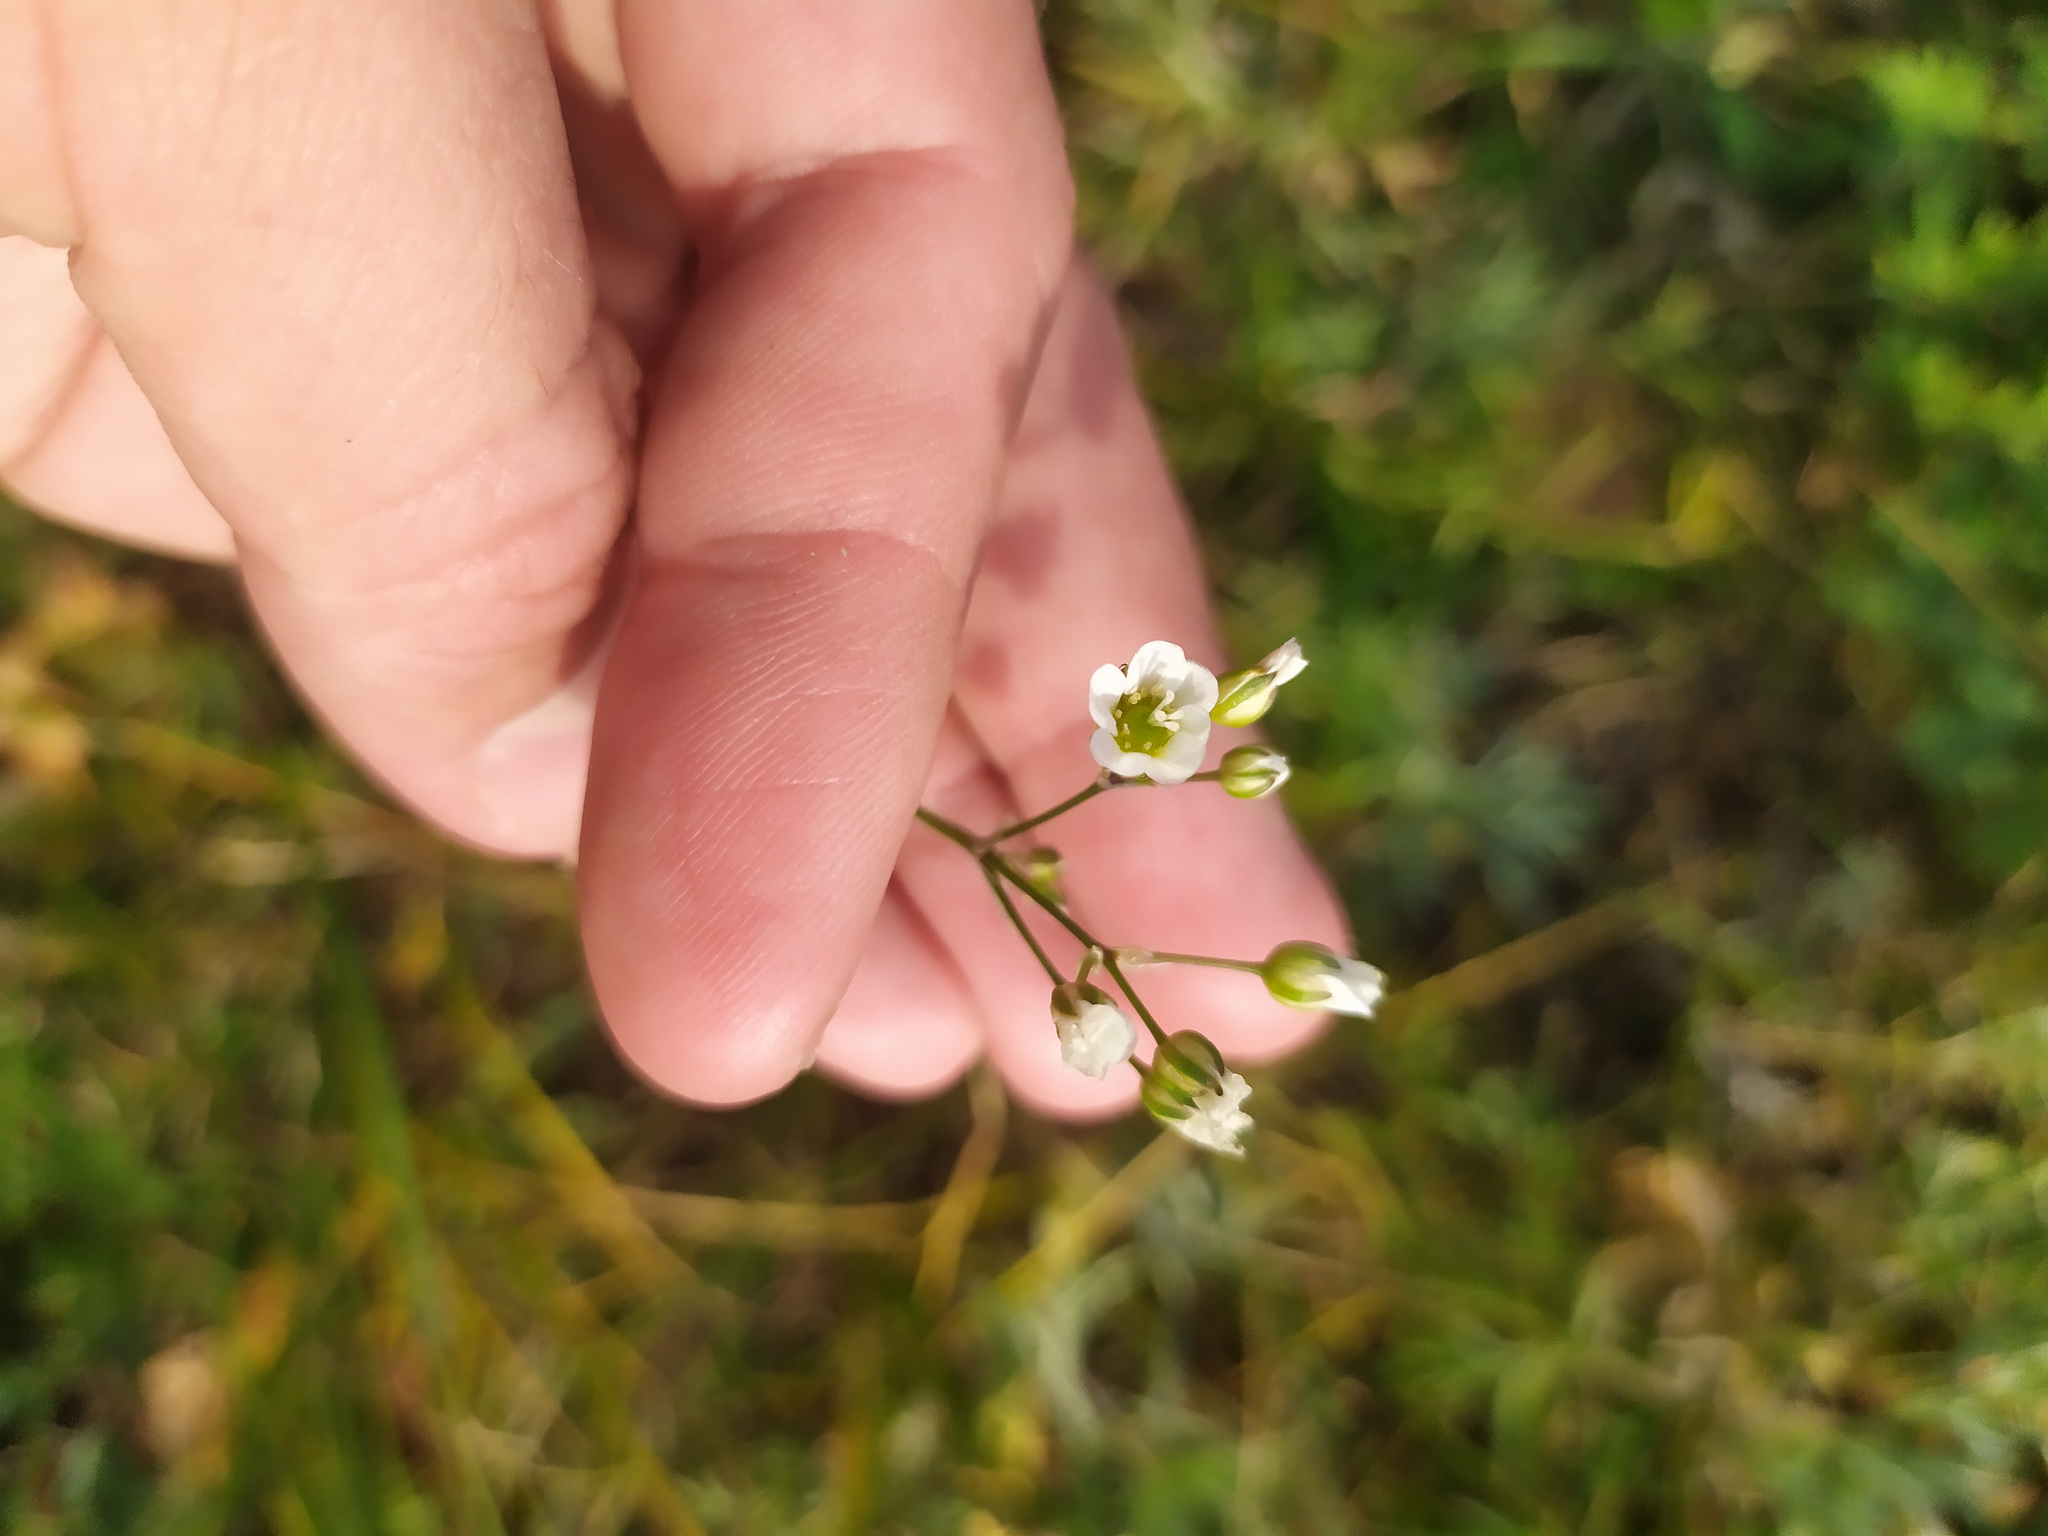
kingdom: Plantae
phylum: Tracheophyta
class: Magnoliopsida
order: Caryophyllales
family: Caryophyllaceae
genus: Eremogone
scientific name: Eremogone saxatilis
